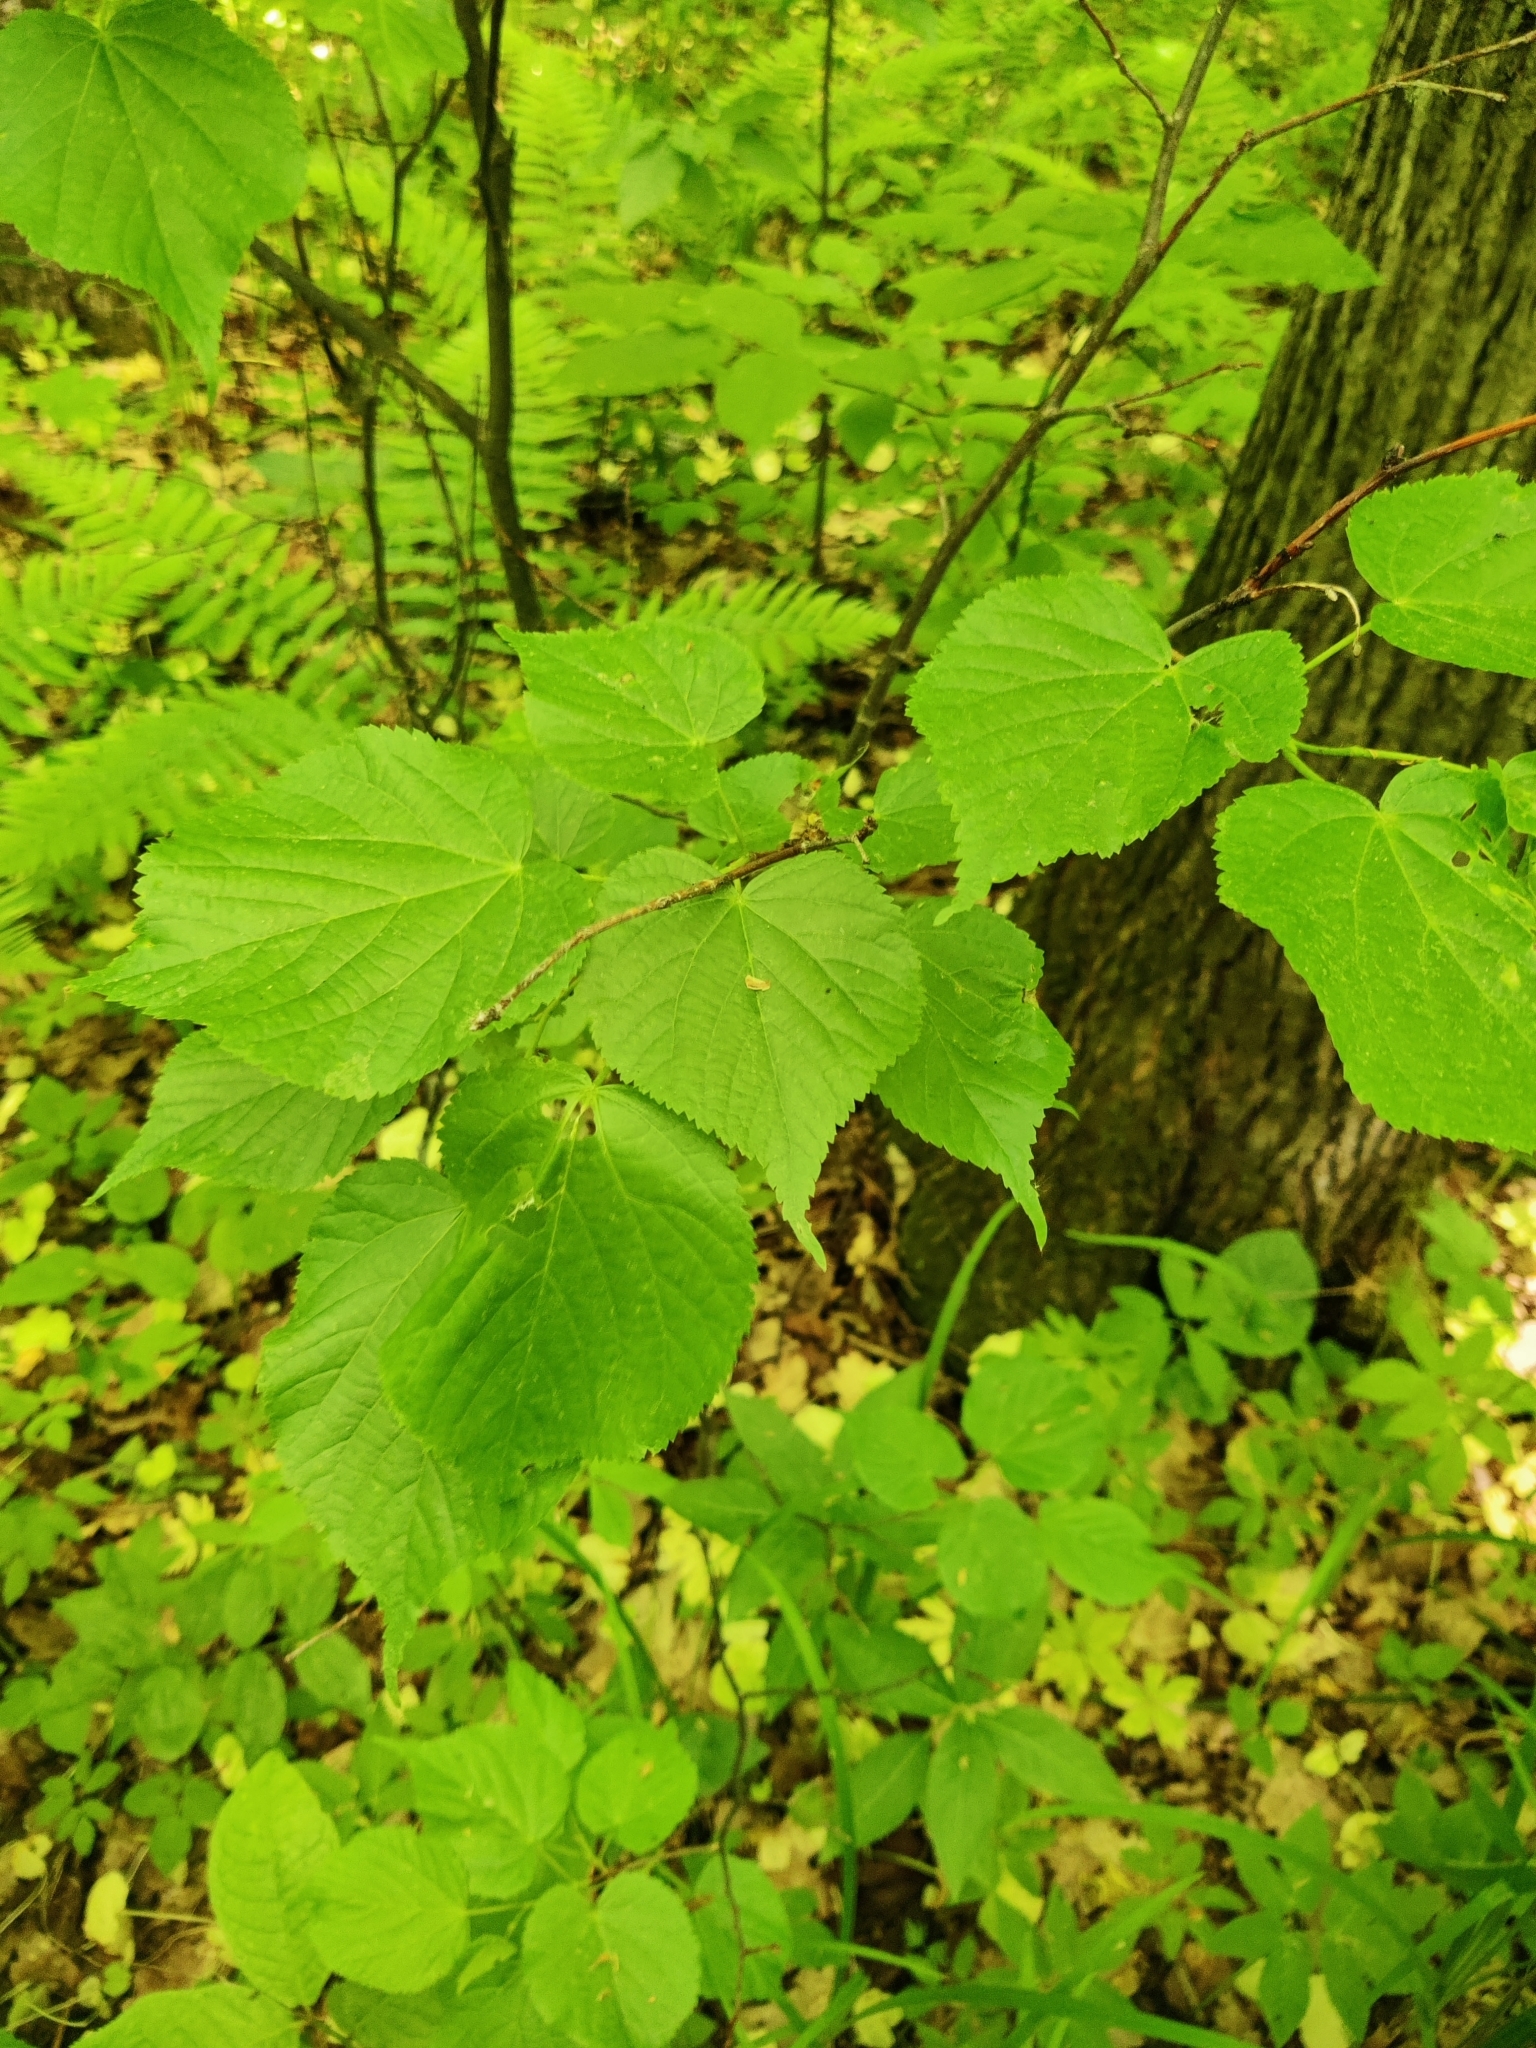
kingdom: Plantae
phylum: Tracheophyta
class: Magnoliopsida
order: Malvales
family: Malvaceae
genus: Tilia
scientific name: Tilia cordata
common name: Small-leaved lime
